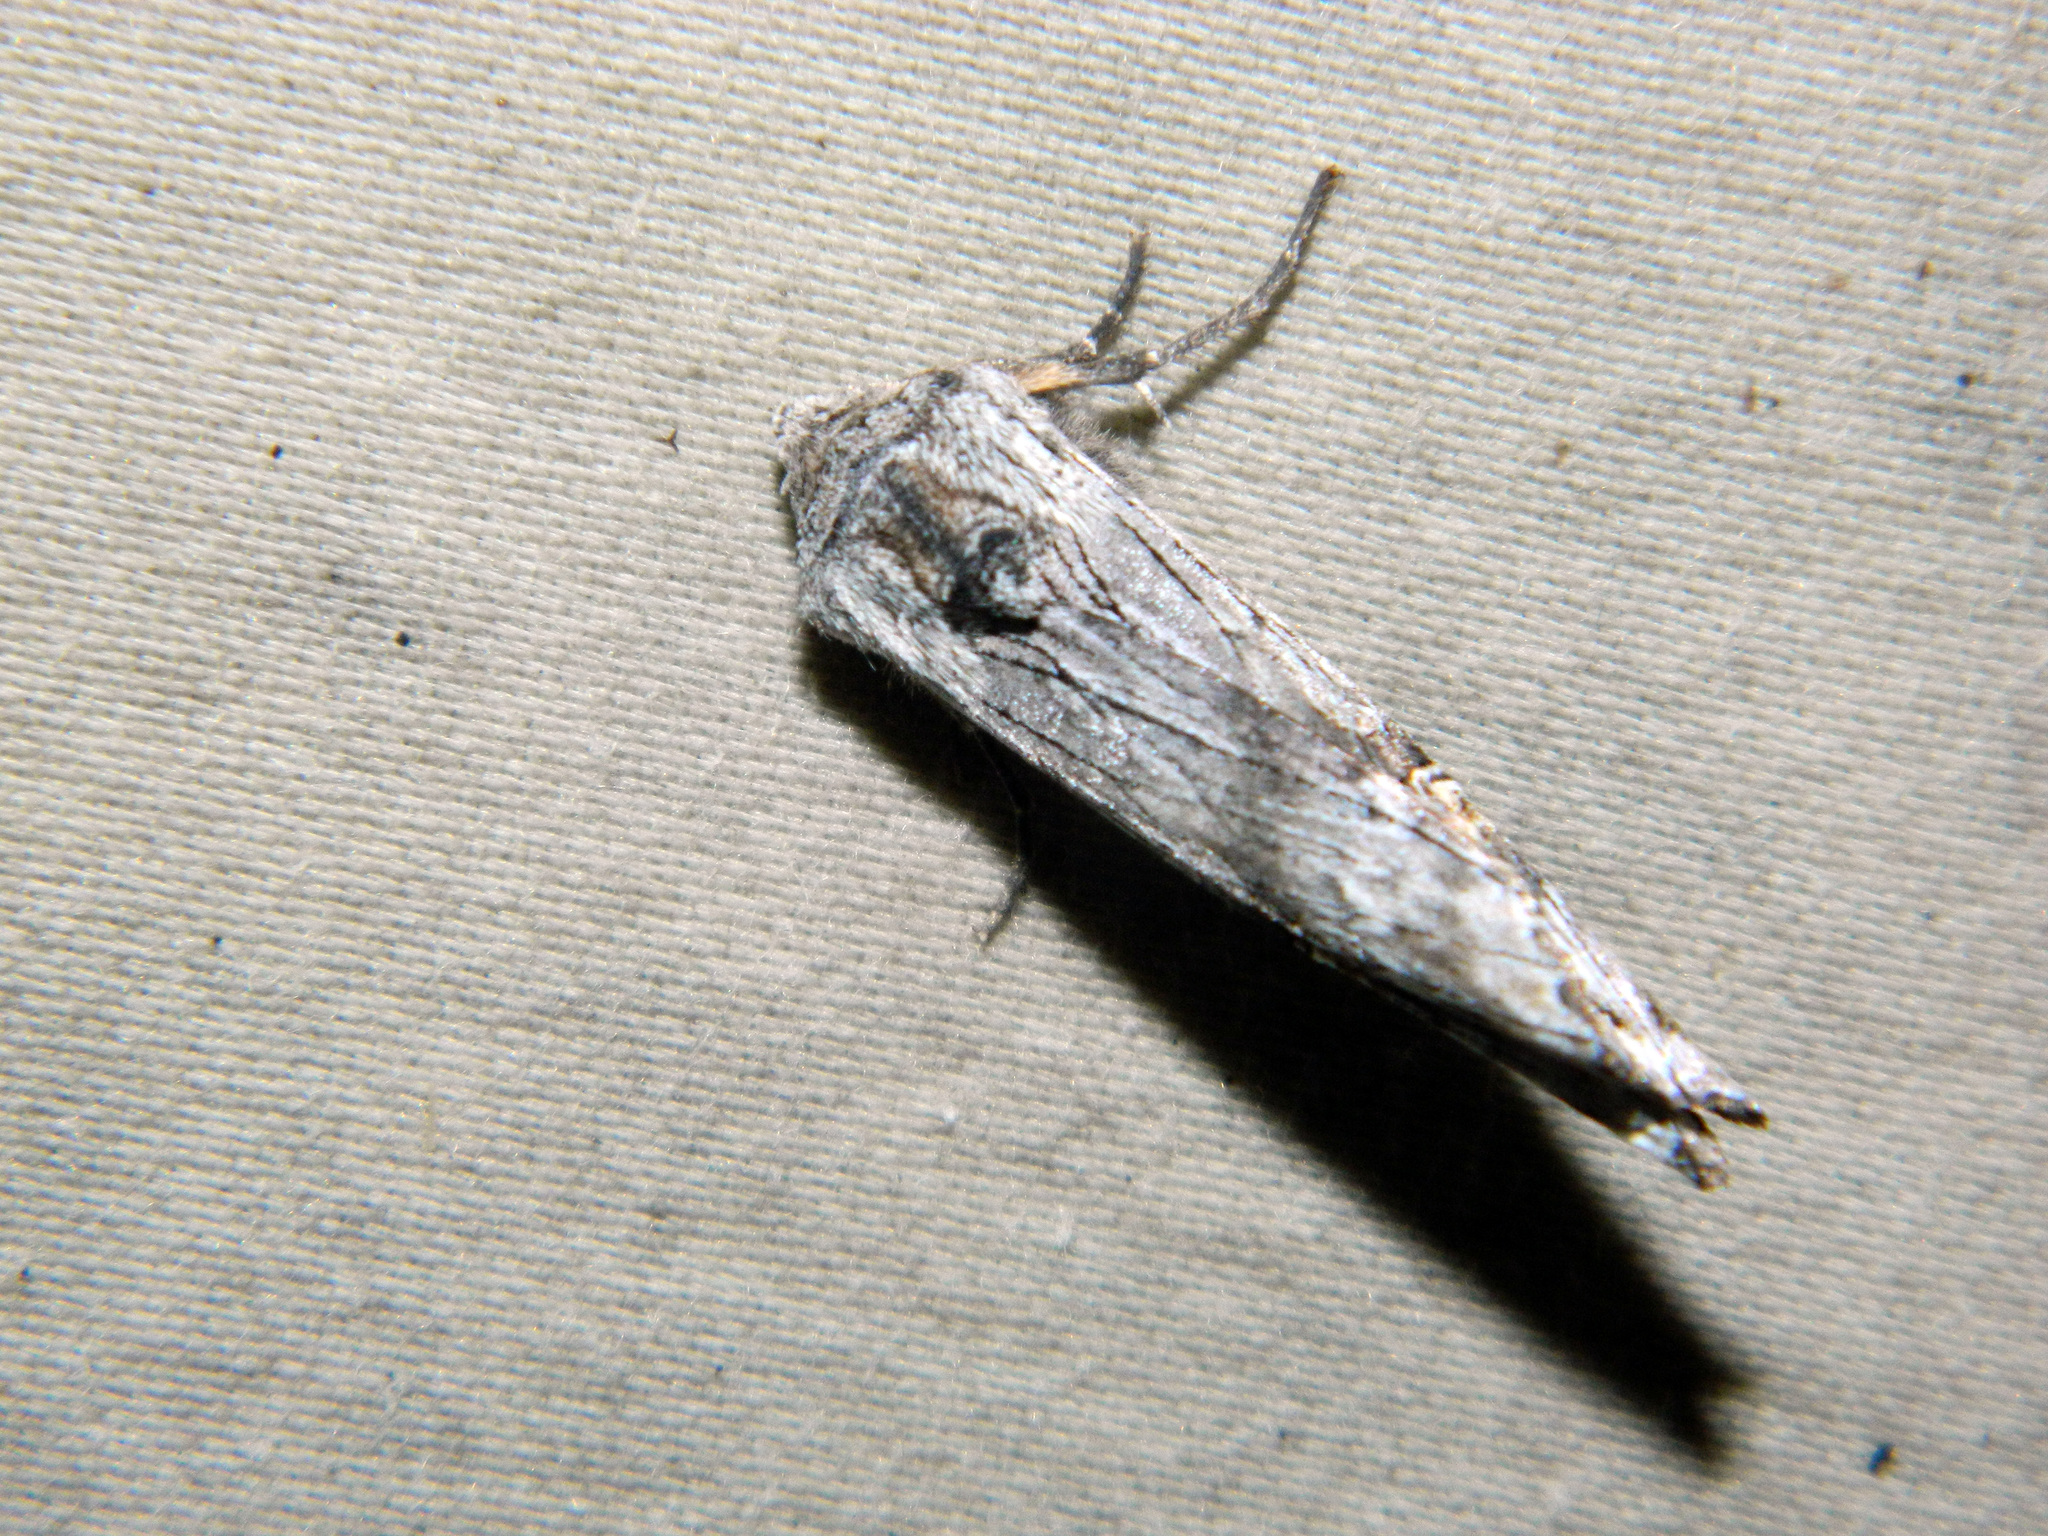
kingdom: Animalia
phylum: Arthropoda
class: Insecta
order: Lepidoptera
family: Noctuidae
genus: Xylena
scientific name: Xylena germana
